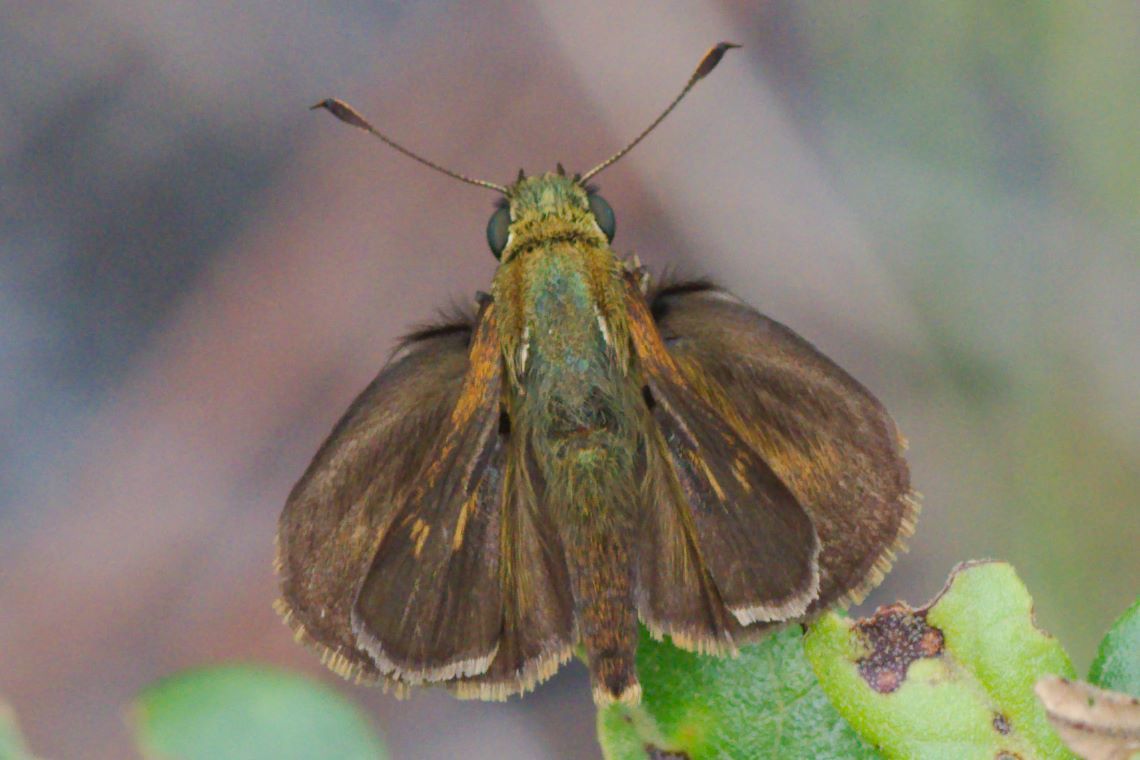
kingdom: Animalia
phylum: Arthropoda
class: Insecta
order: Lepidoptera
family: Hesperiidae
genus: Polites
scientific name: Polites egeremet
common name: Northern broken-dash
